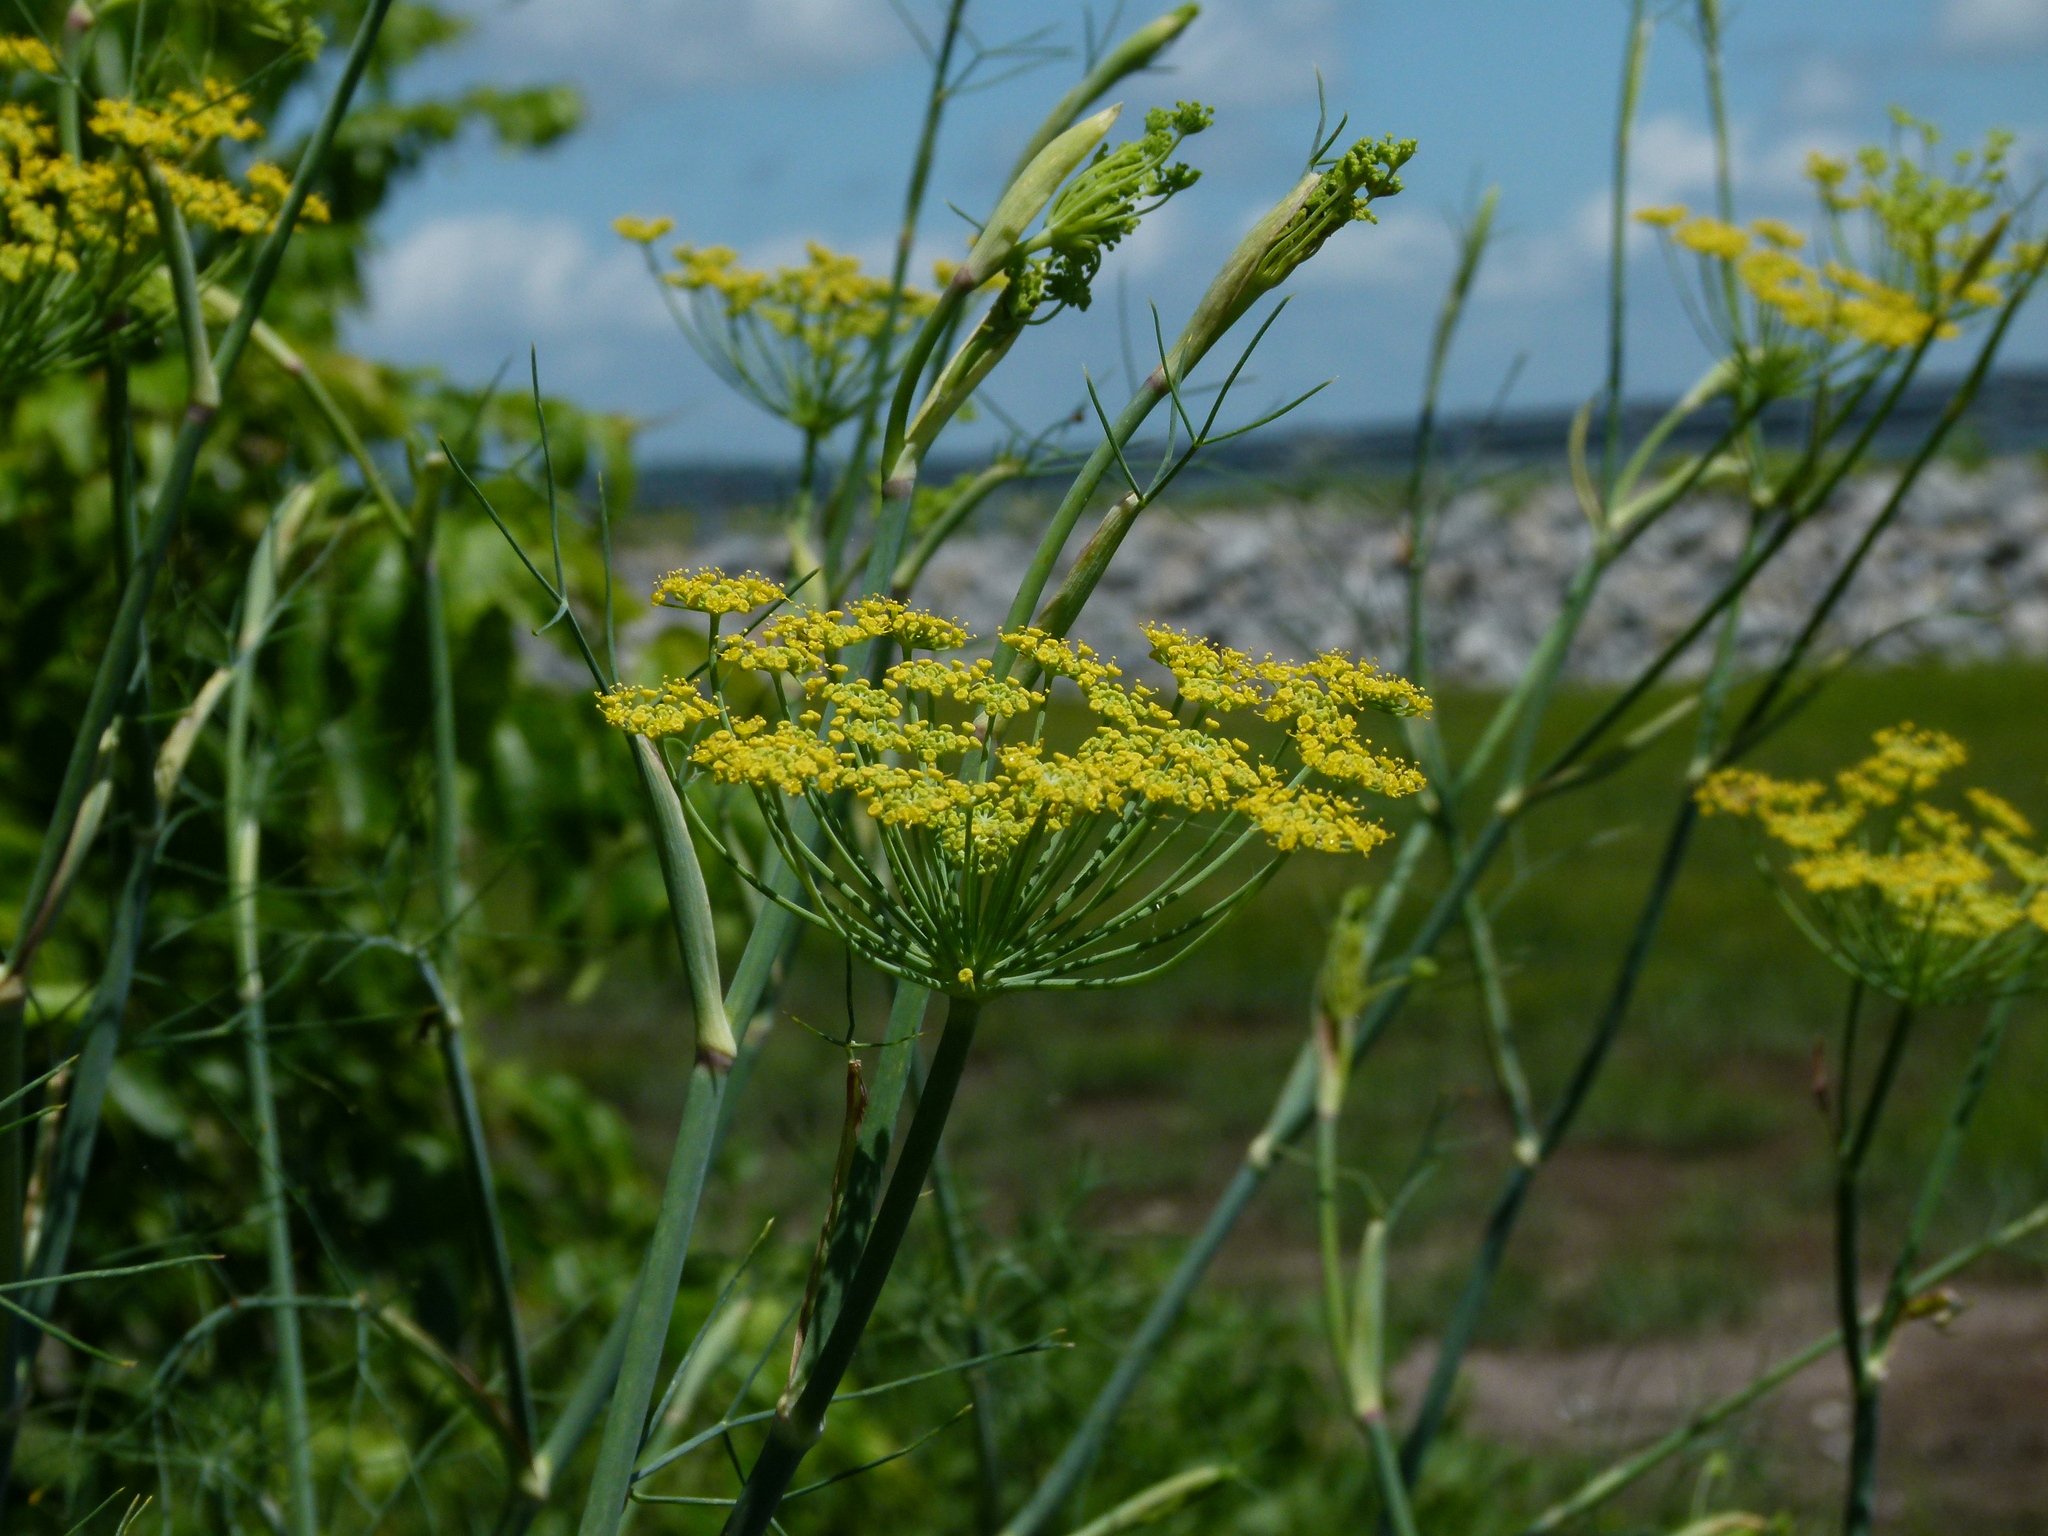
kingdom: Plantae
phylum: Tracheophyta
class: Magnoliopsida
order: Apiales
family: Apiaceae
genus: Foeniculum
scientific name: Foeniculum vulgare
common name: Fennel
